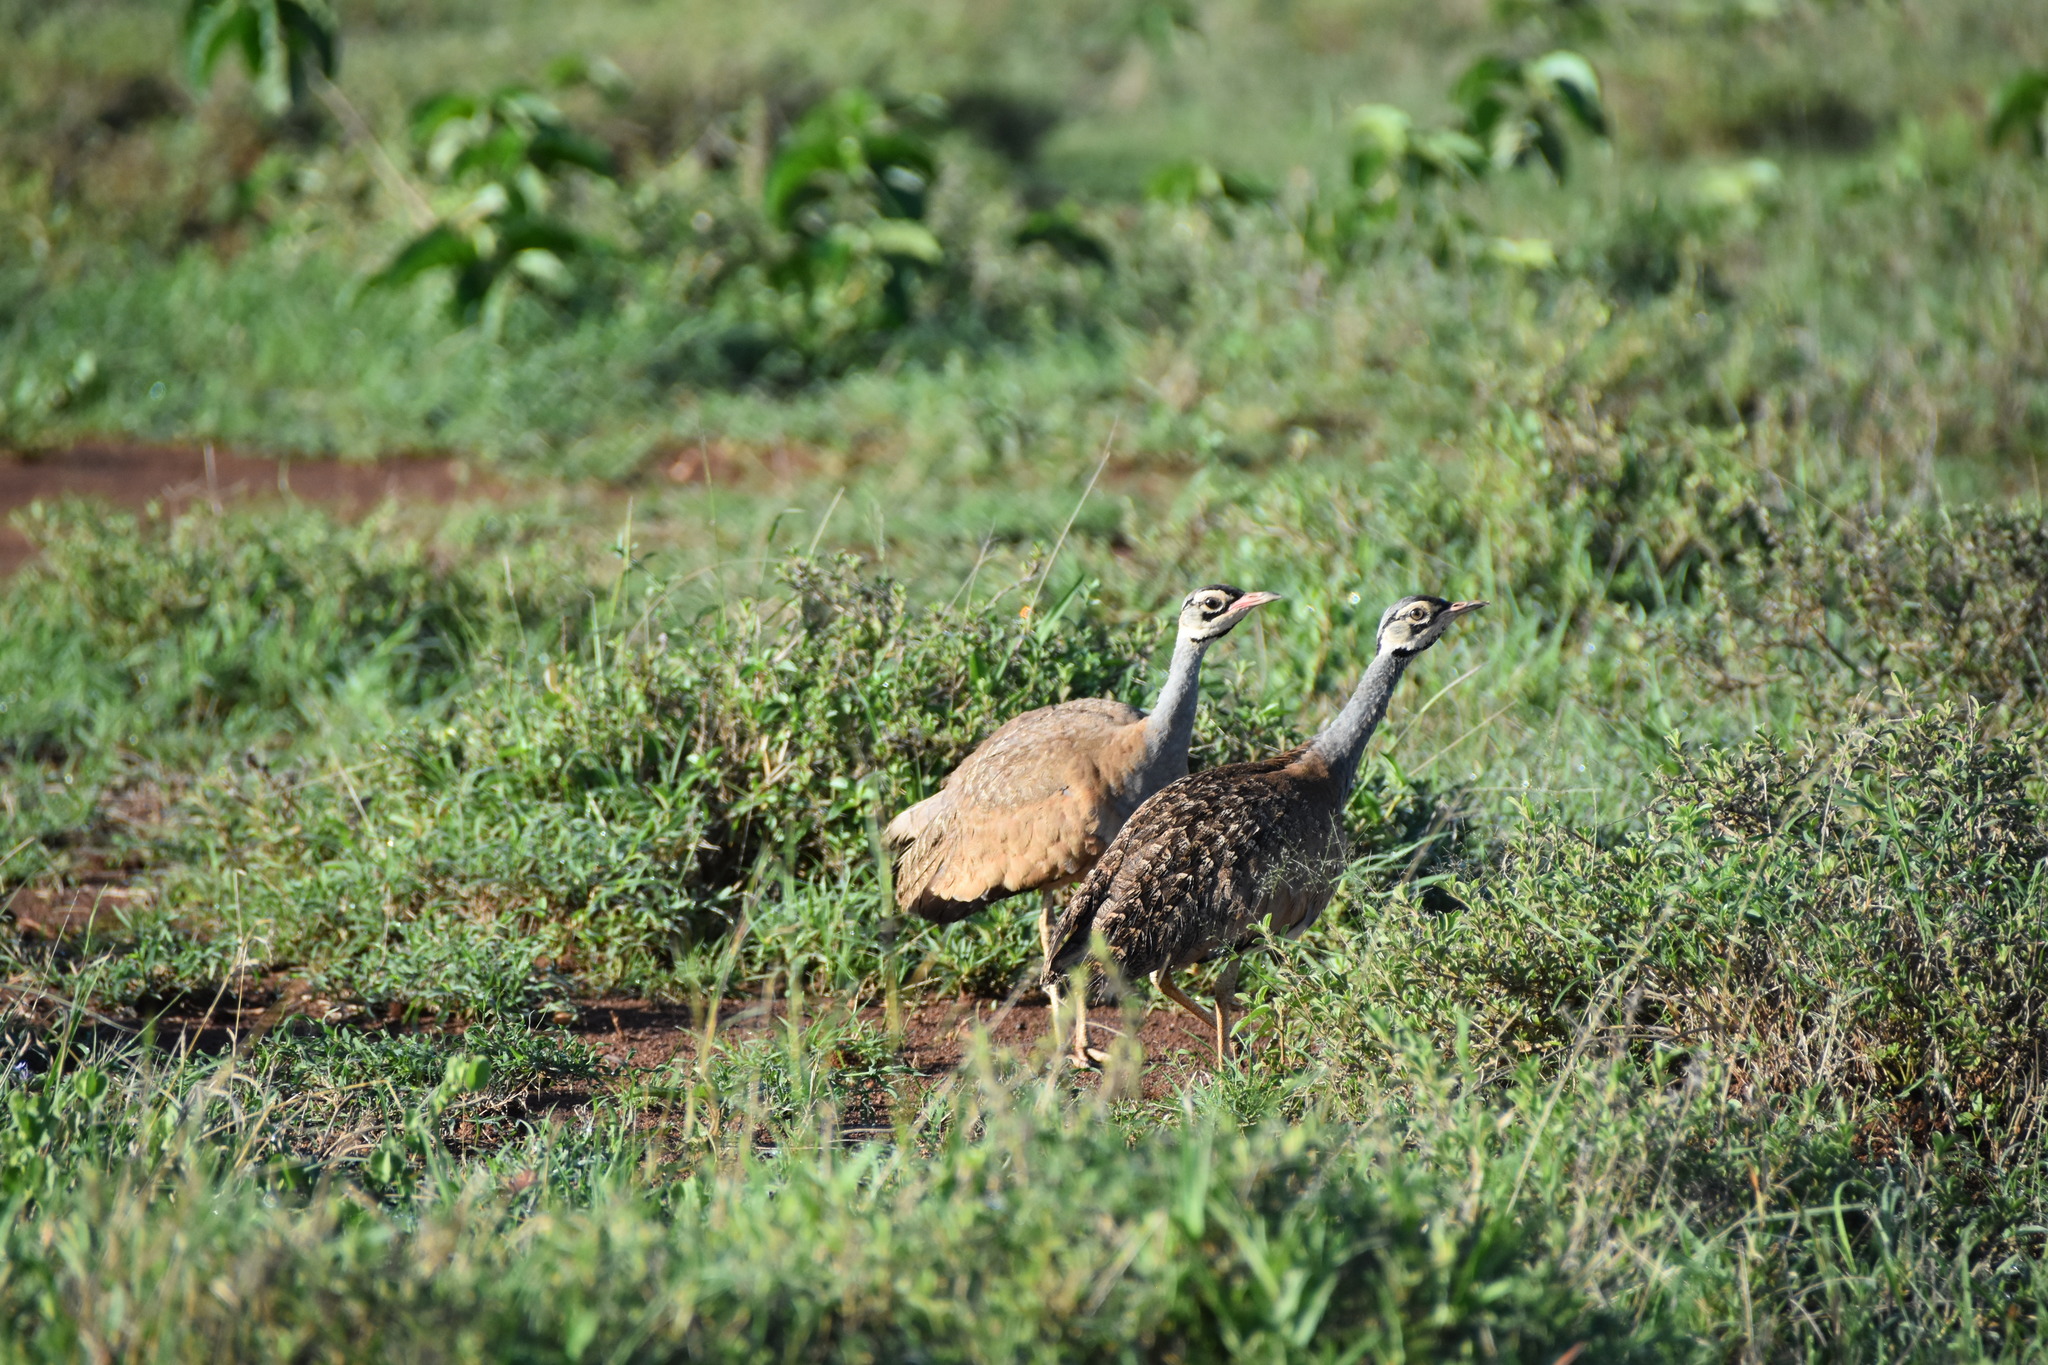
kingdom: Animalia
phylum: Chordata
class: Aves
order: Otidiformes
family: Otididae
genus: Eupodotis
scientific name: Eupodotis senegalensis
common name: White-bellied bustard
